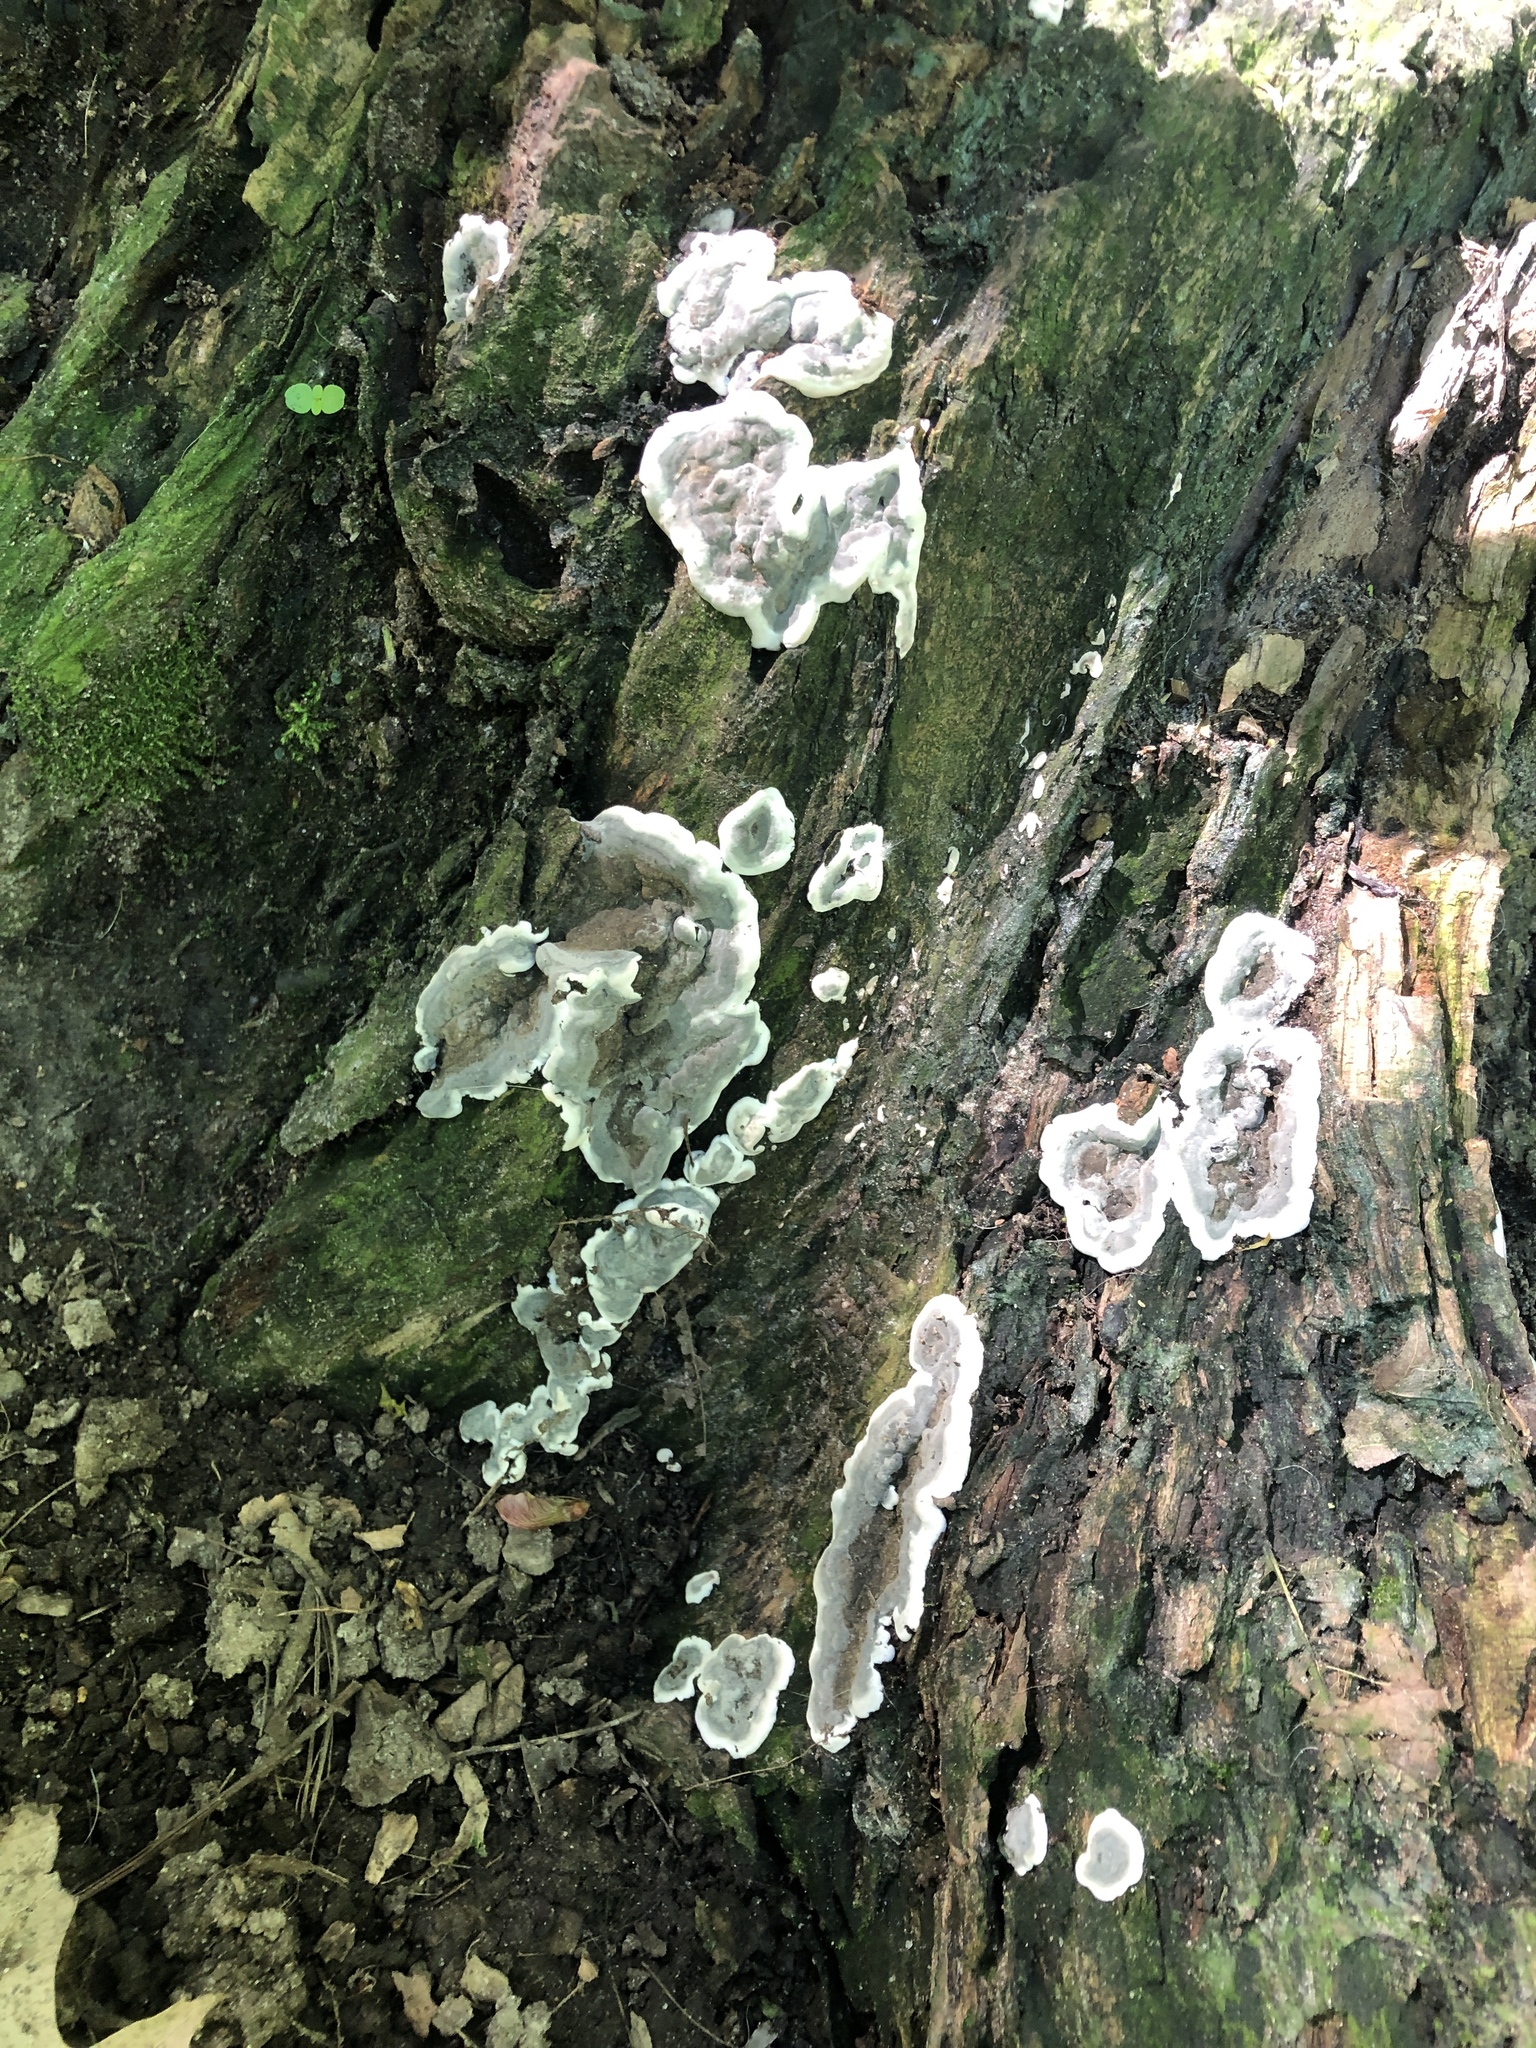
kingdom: Fungi
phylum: Ascomycota
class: Sordariomycetes
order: Xylariales
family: Xylariaceae
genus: Kretzschmaria
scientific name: Kretzschmaria deusta
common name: Brittle cinder
